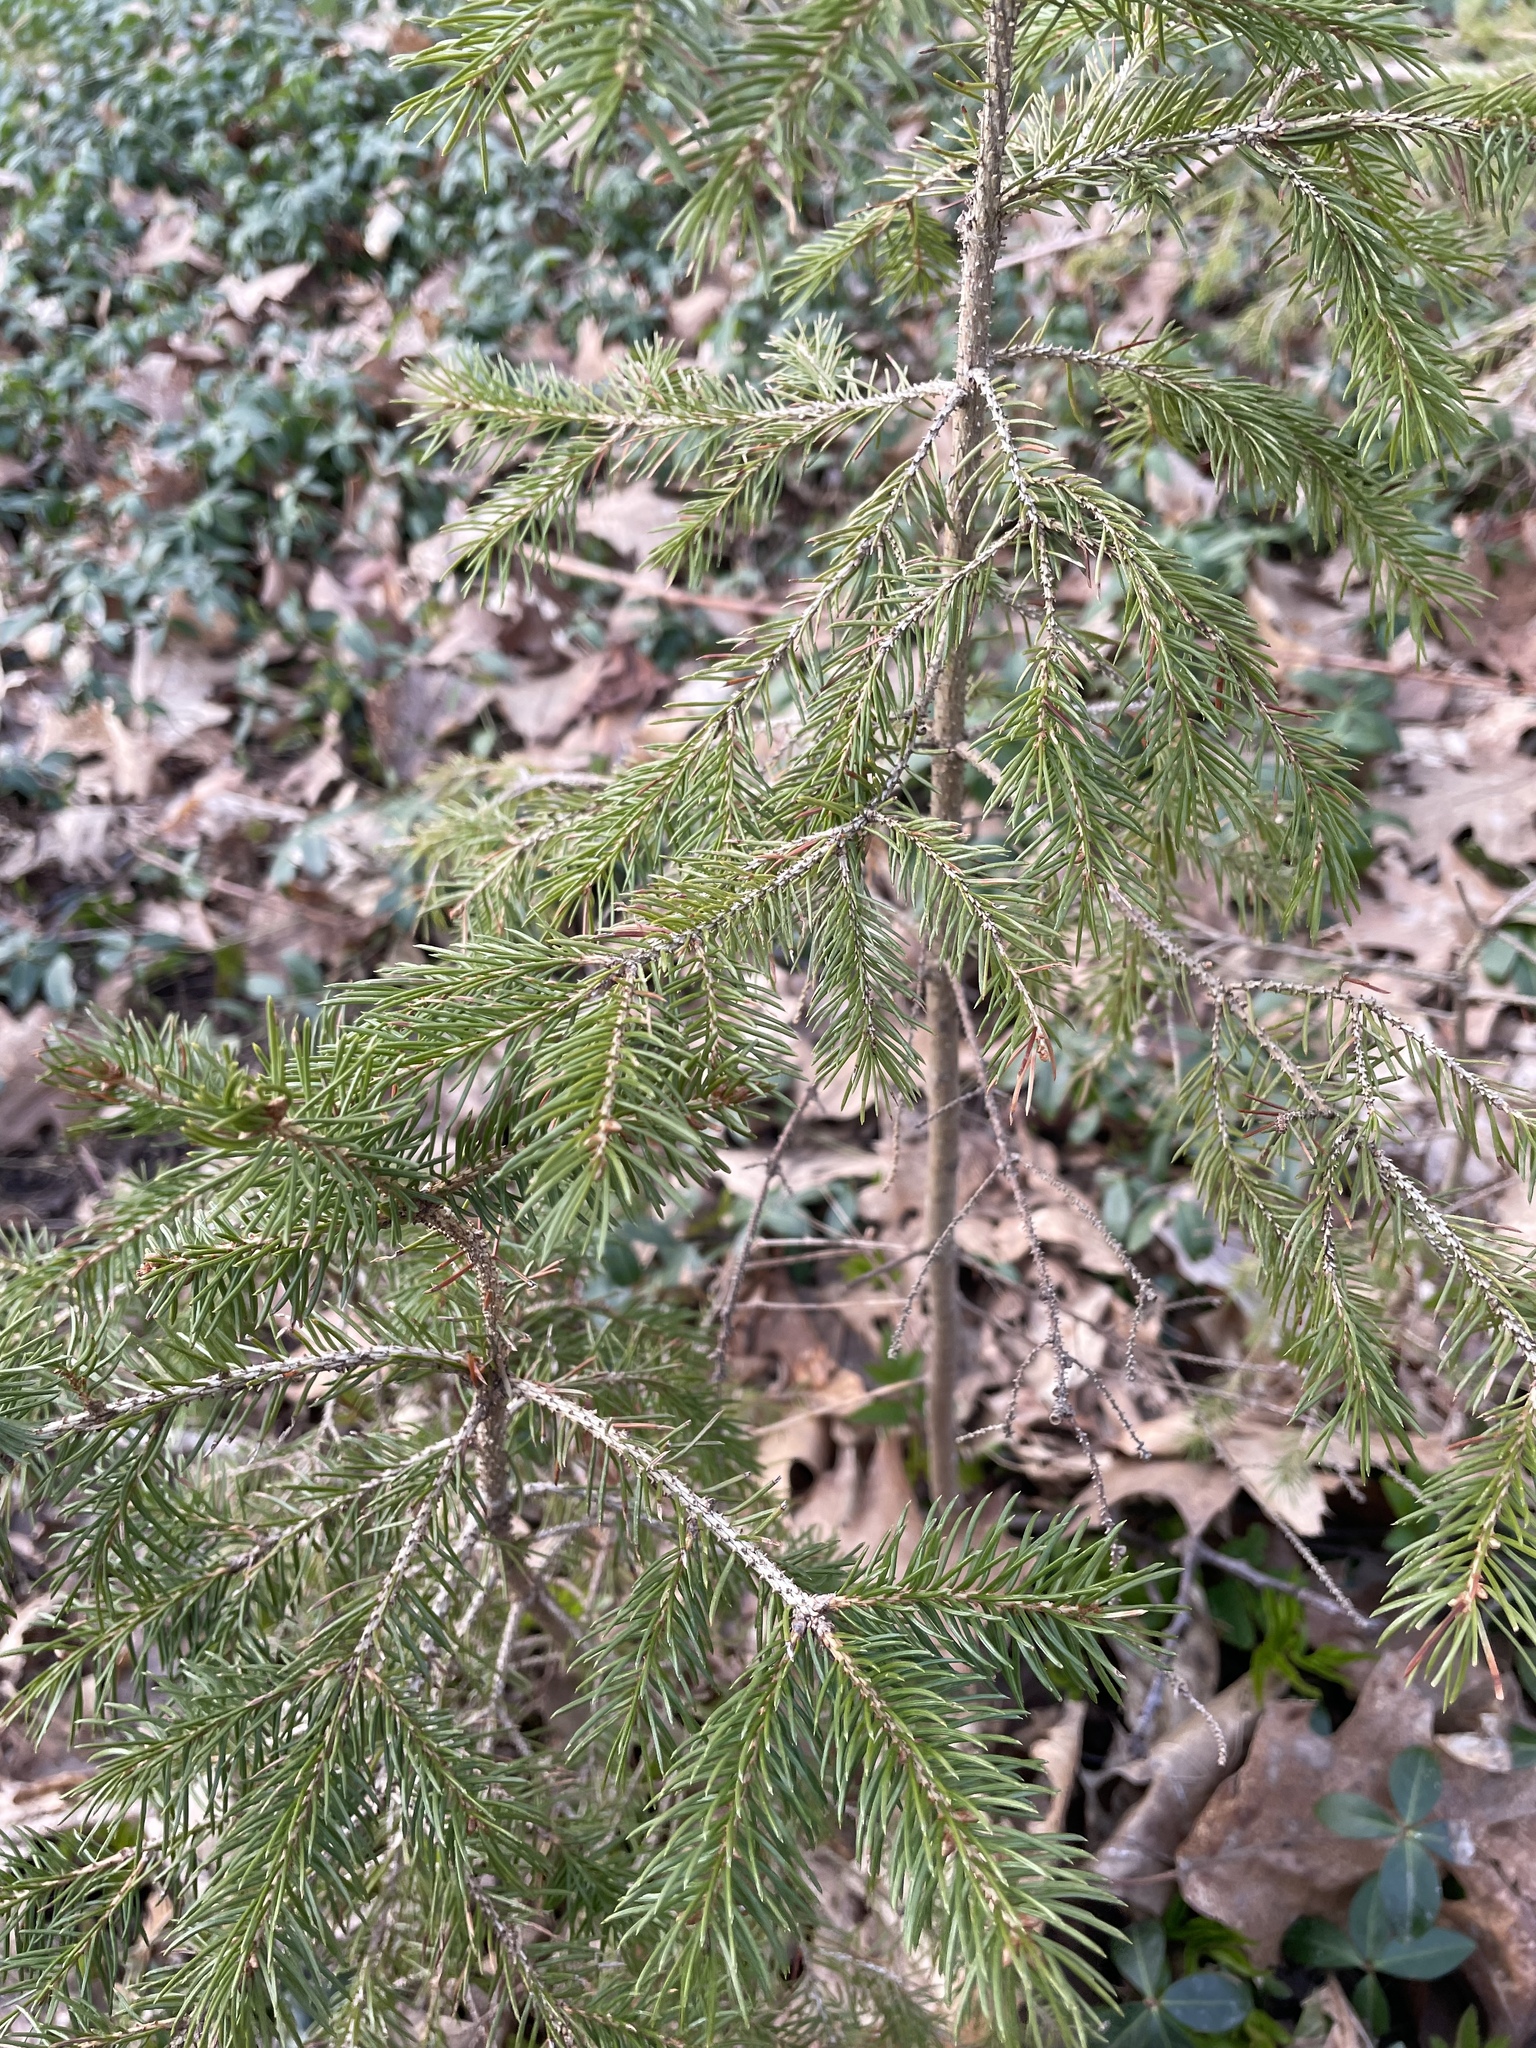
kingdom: Plantae
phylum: Tracheophyta
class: Pinopsida
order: Pinales
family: Pinaceae
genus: Picea
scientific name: Picea glauca
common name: White spruce
